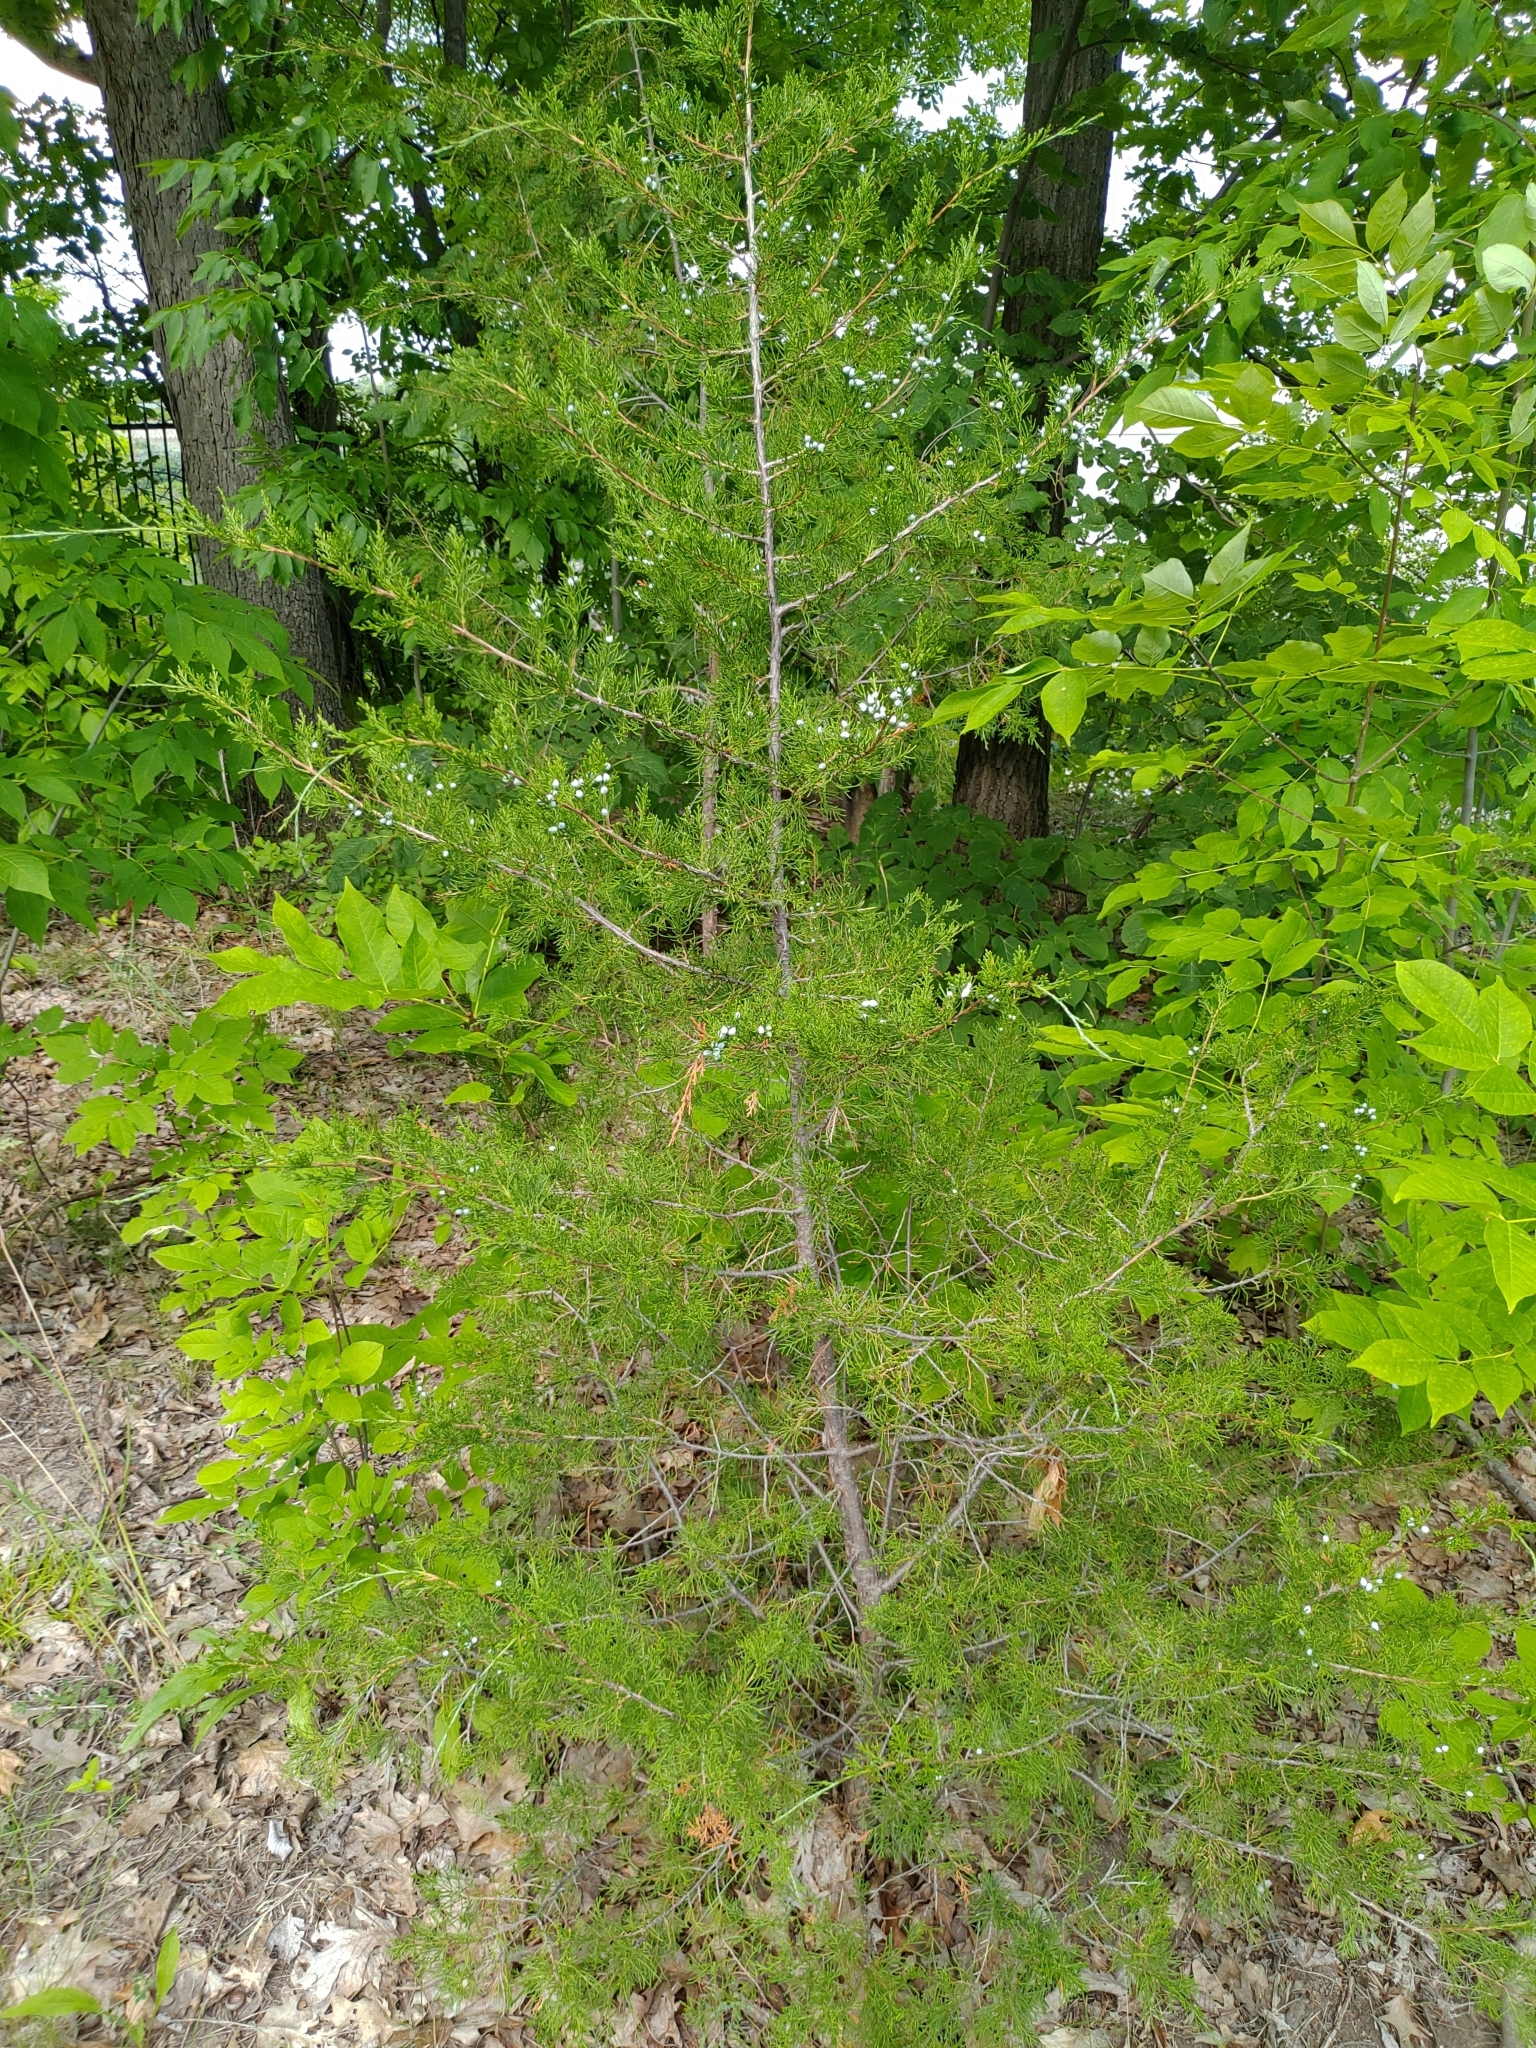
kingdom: Plantae
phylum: Tracheophyta
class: Pinopsida
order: Pinales
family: Cupressaceae
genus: Juniperus
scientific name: Juniperus virginiana
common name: Red juniper
